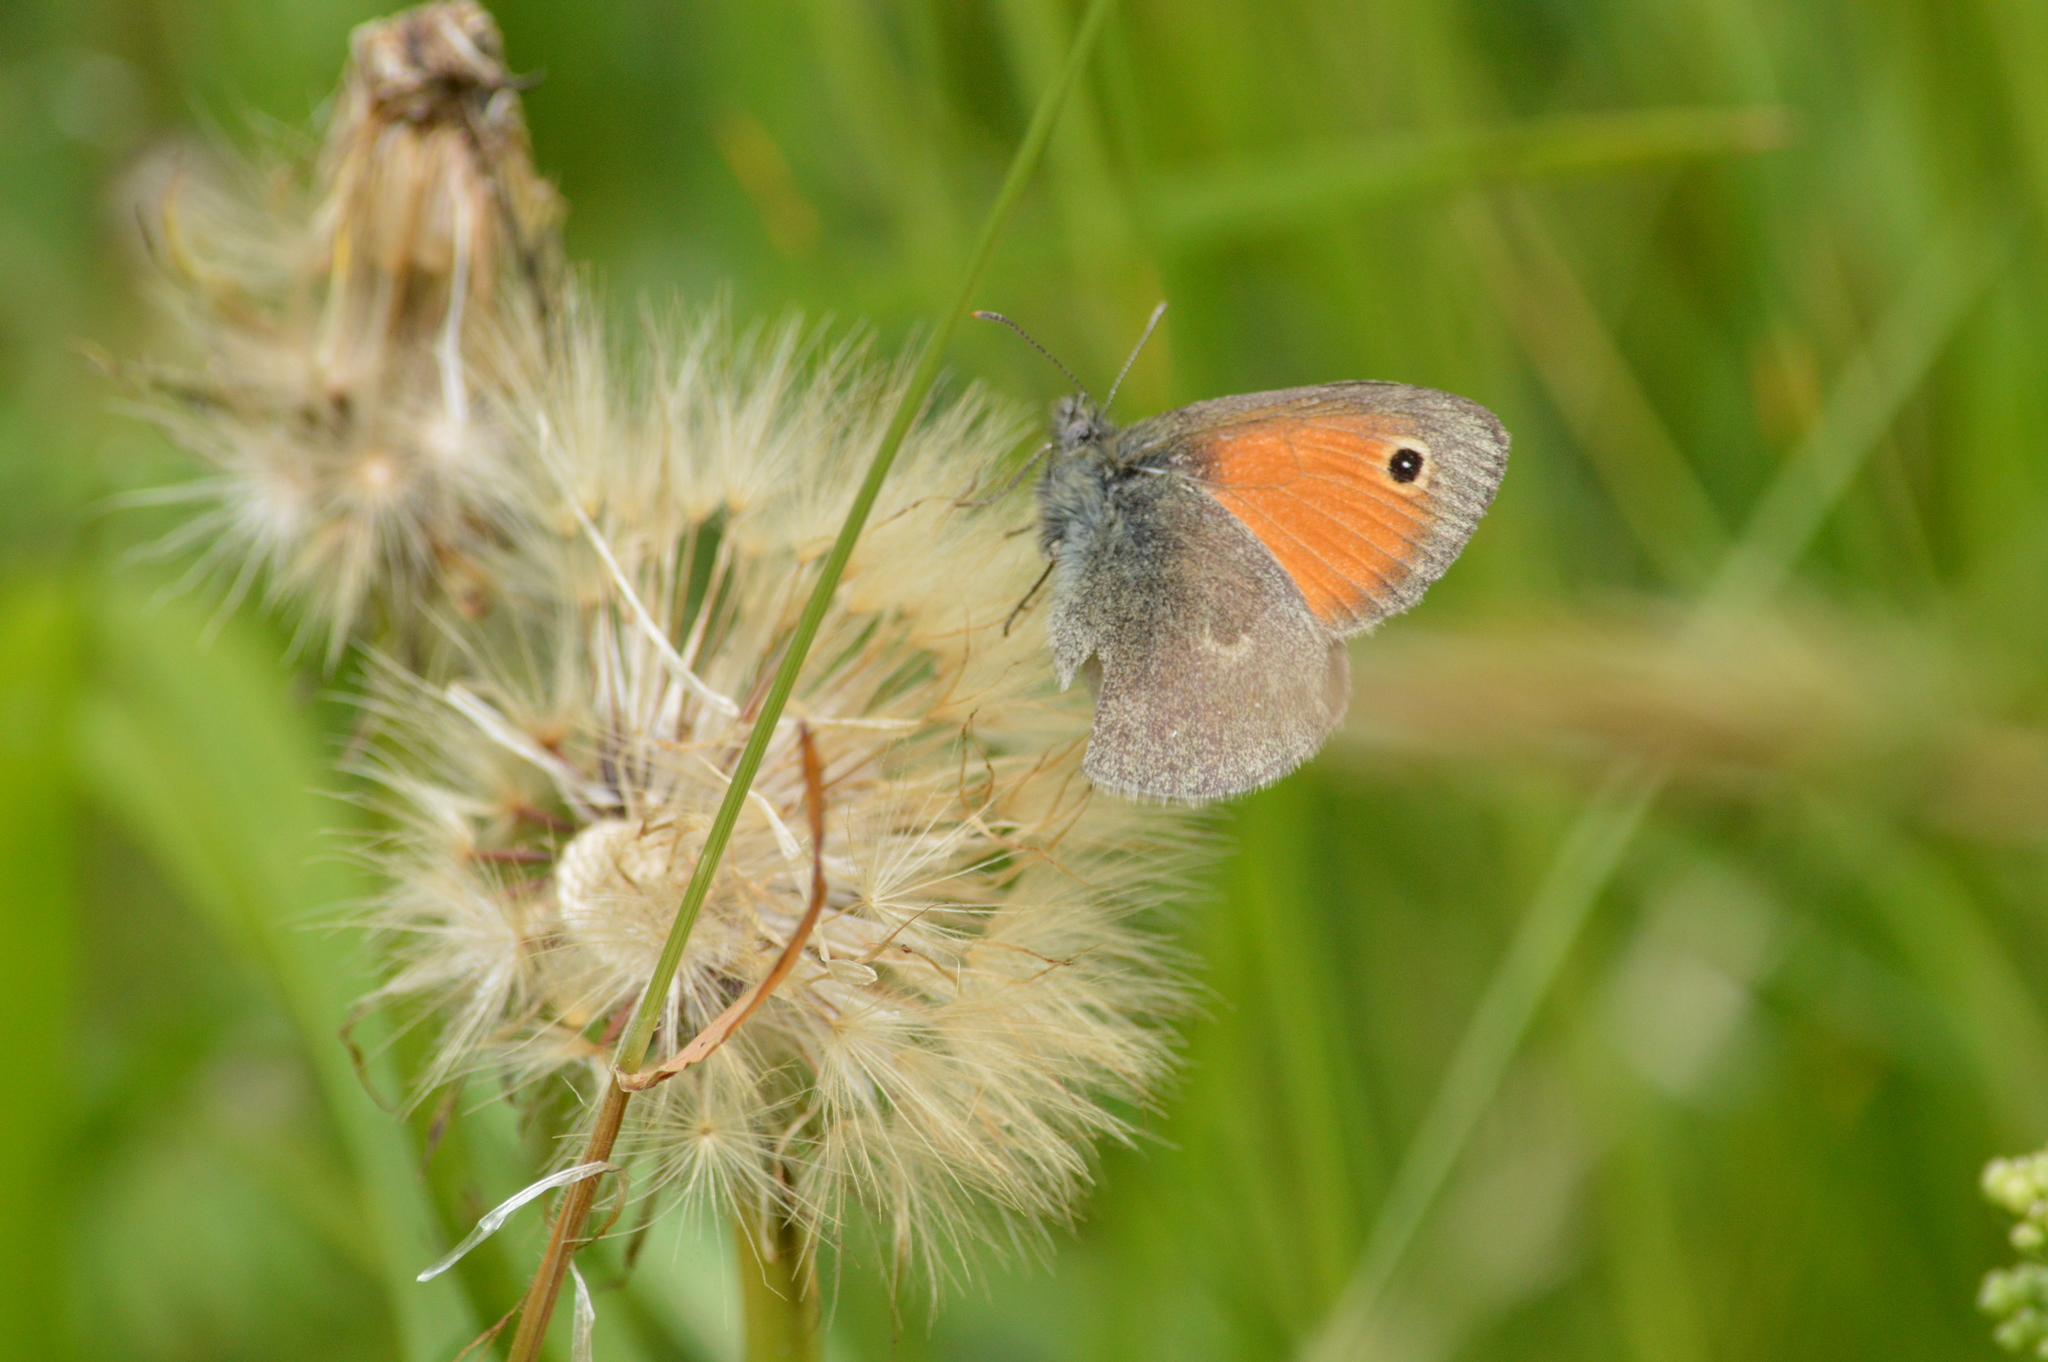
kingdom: Animalia
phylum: Arthropoda
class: Insecta
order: Lepidoptera
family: Nymphalidae
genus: Coenonympha
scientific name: Coenonympha pamphilus
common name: Small heath
